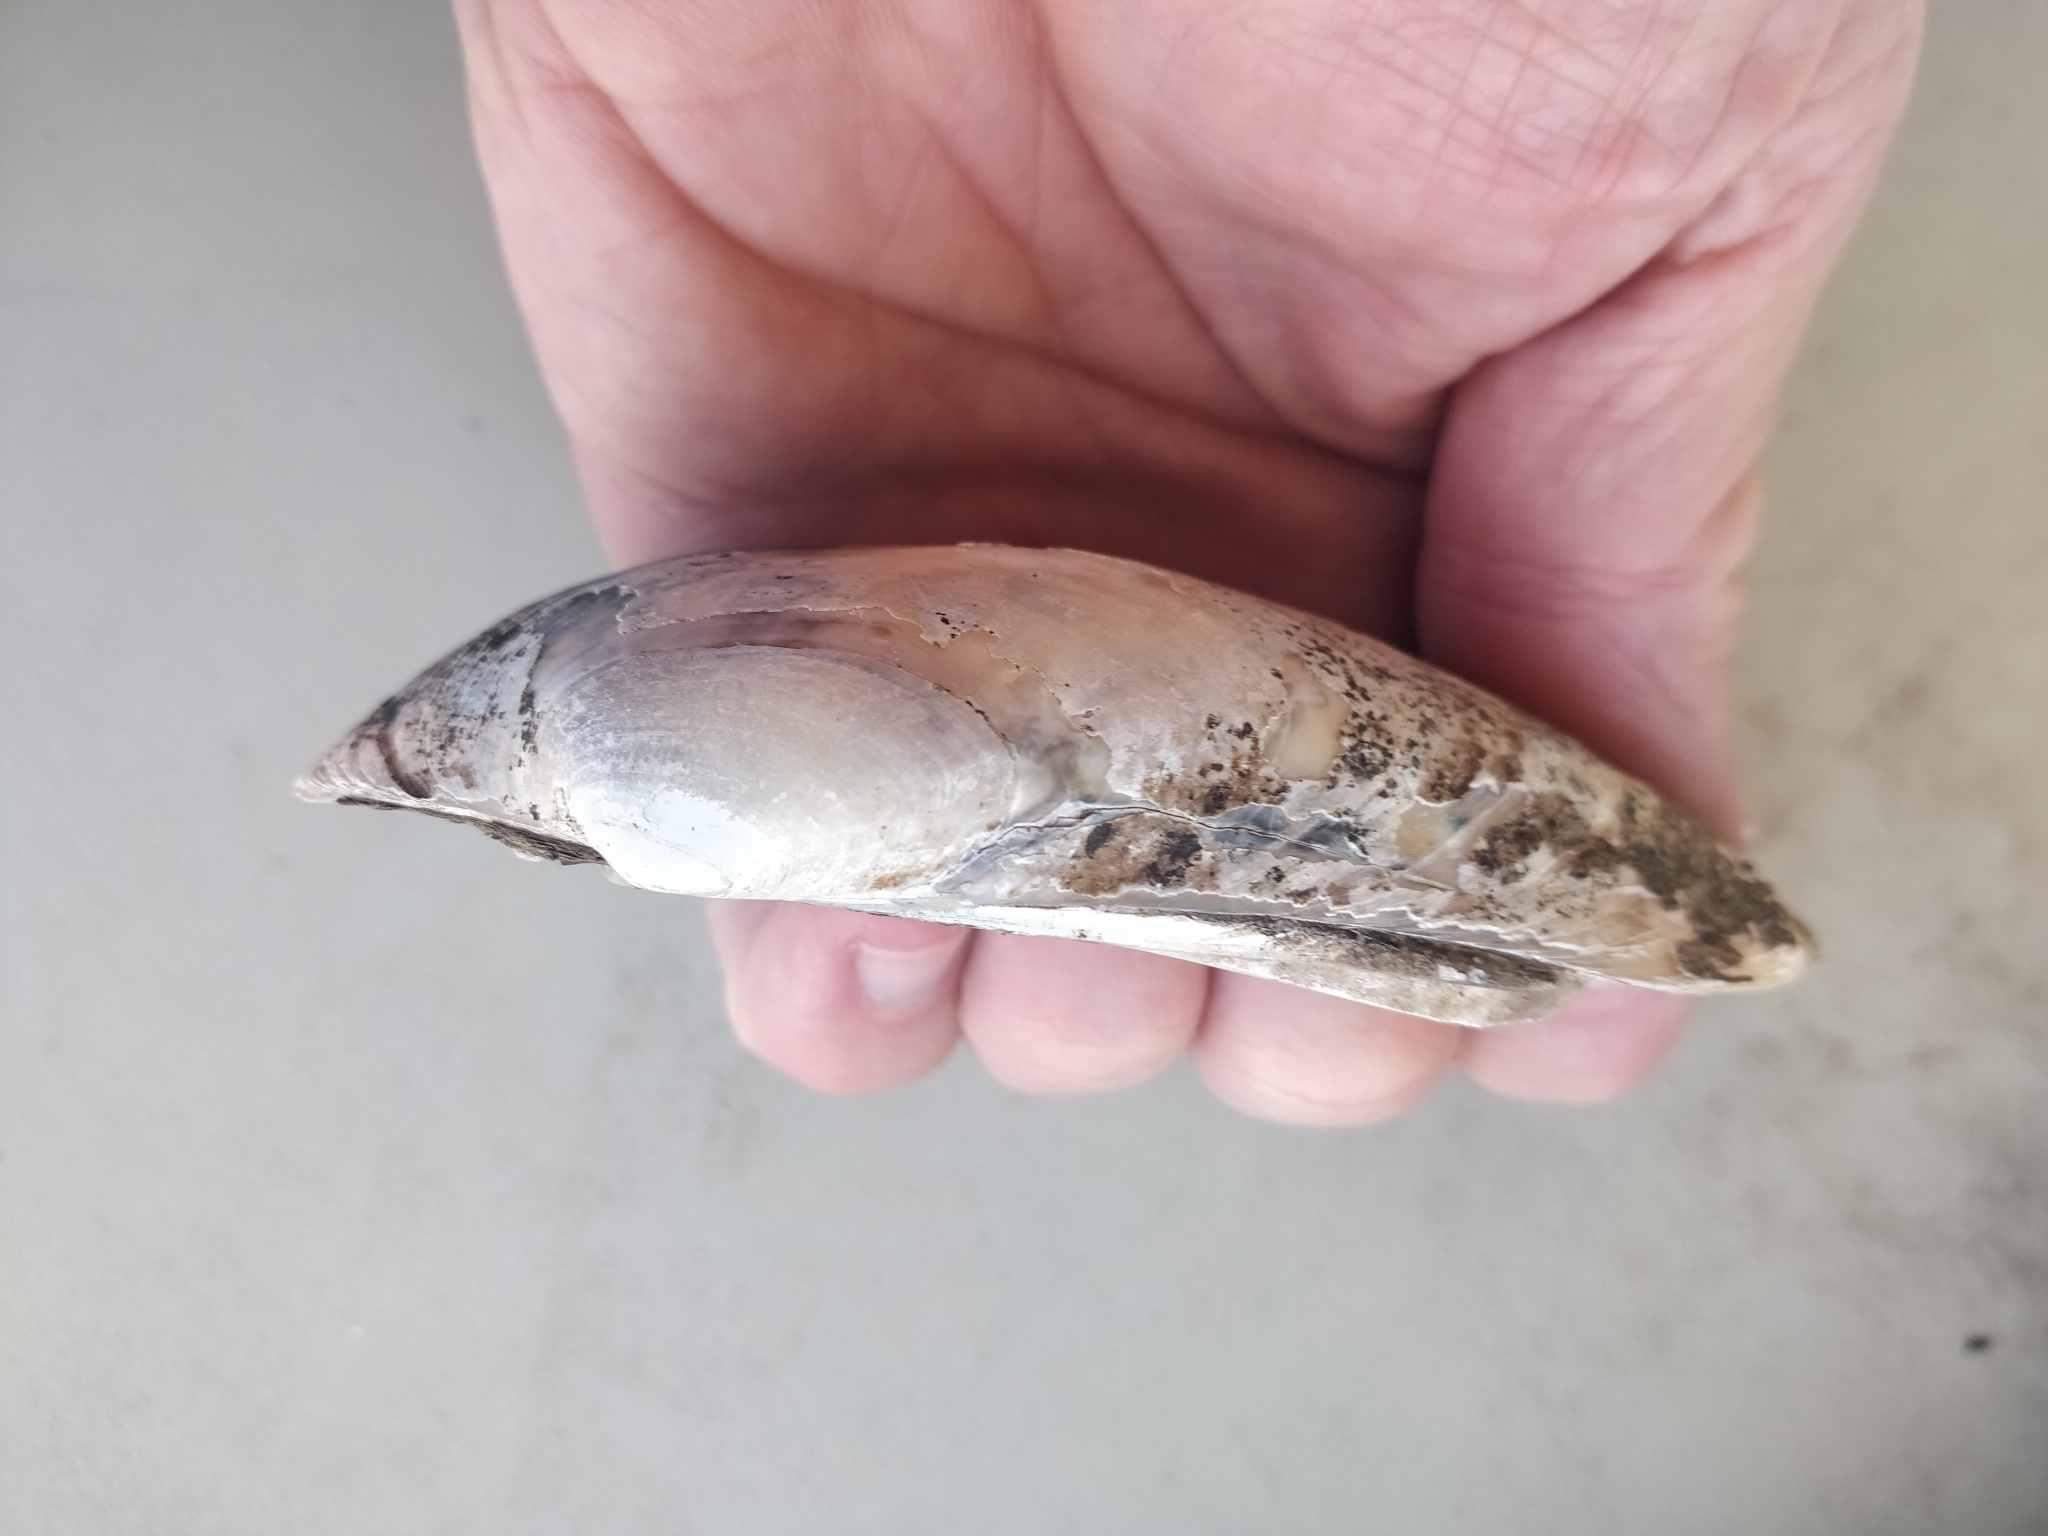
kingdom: Animalia
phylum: Mollusca
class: Bivalvia
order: Unionida
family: Unionidae
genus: Lampsilis
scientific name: Lampsilis siliquoidea
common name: Fatmucket
